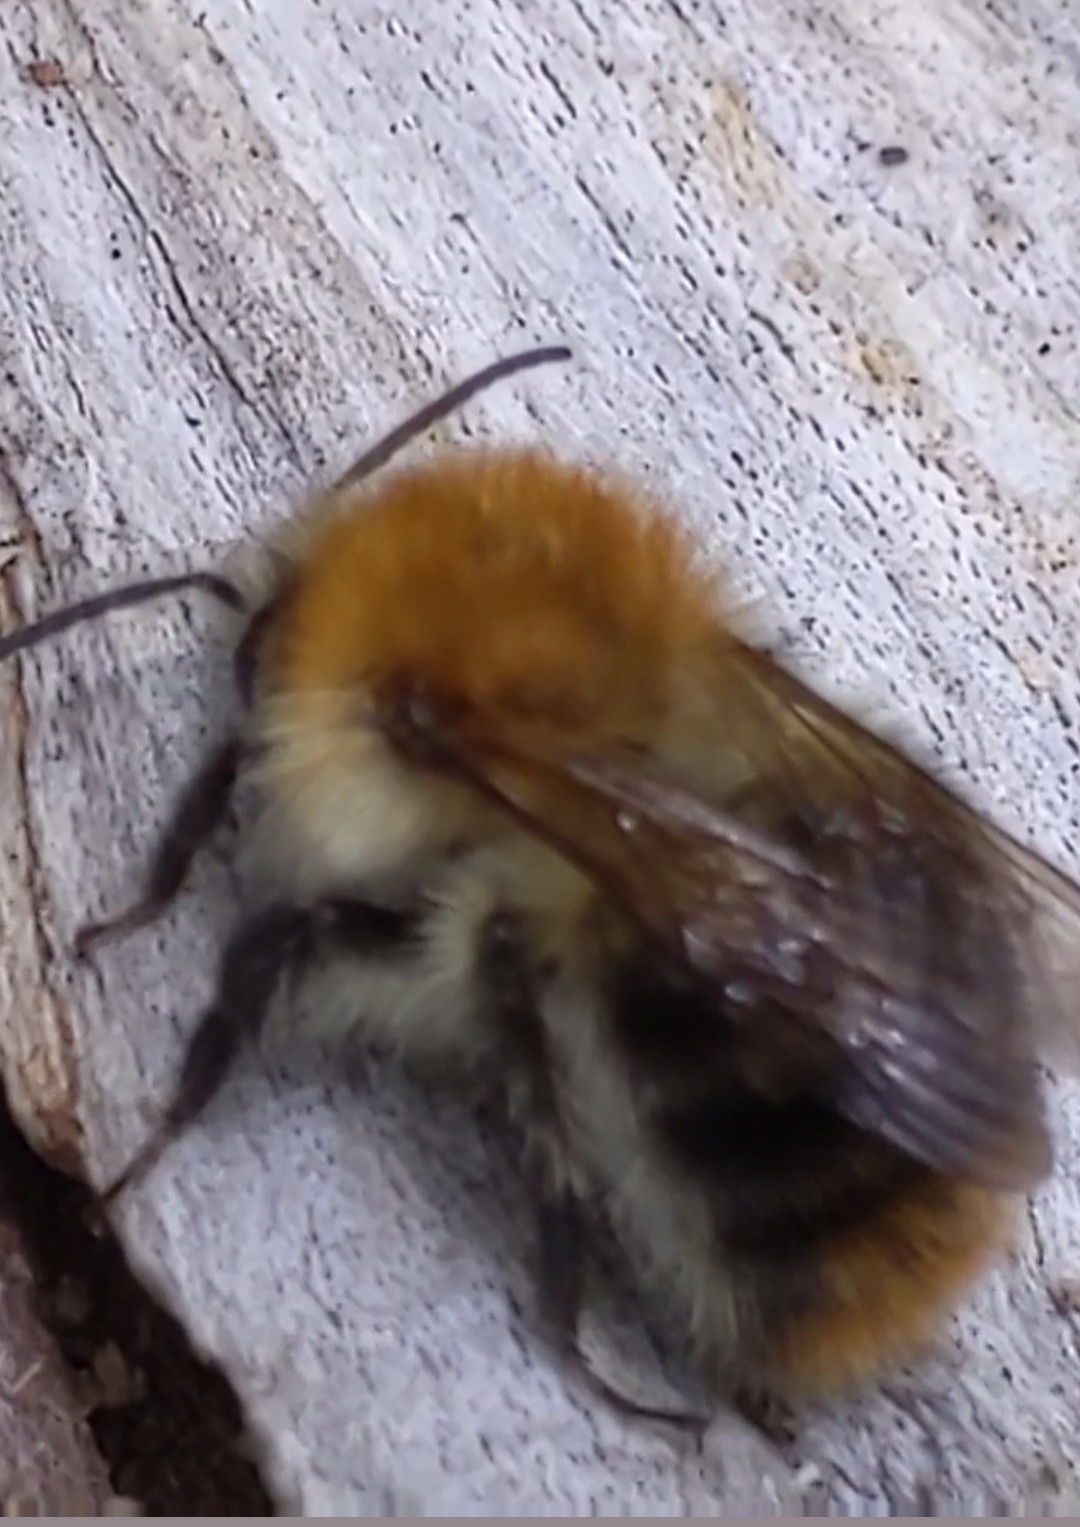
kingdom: Animalia
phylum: Arthropoda
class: Insecta
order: Hymenoptera
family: Apidae
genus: Bombus
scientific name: Bombus pascuorum
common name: Common carder bee
